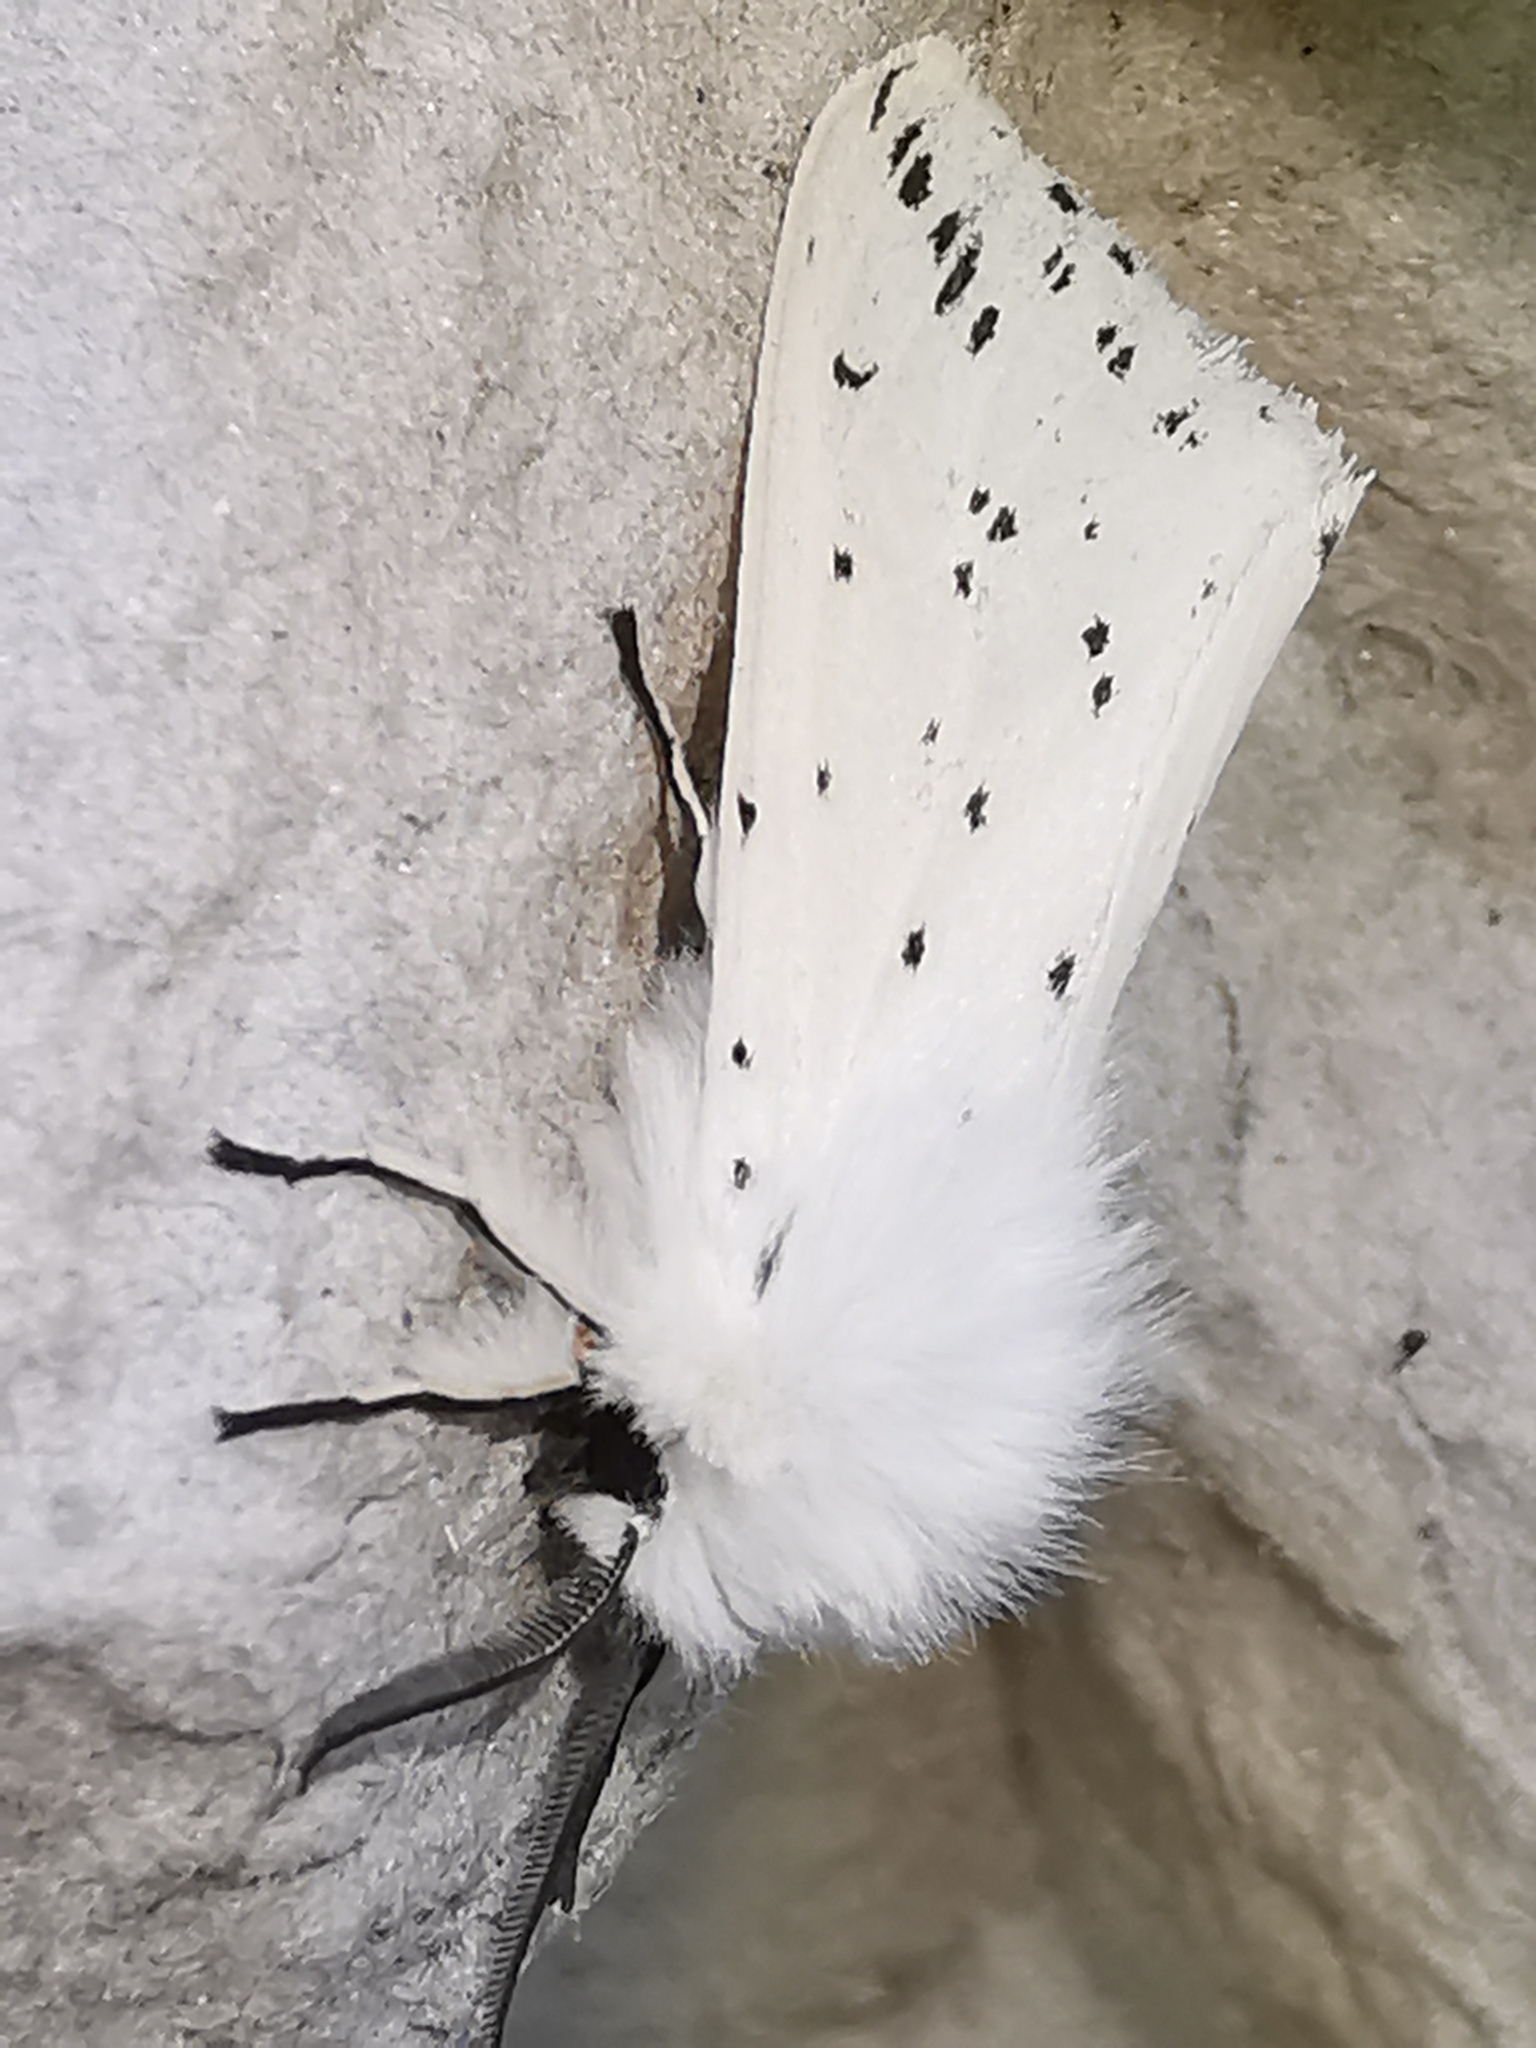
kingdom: Animalia
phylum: Arthropoda
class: Insecta
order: Lepidoptera
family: Erebidae
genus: Spilosoma
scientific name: Spilosoma lubricipeda
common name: White ermine
